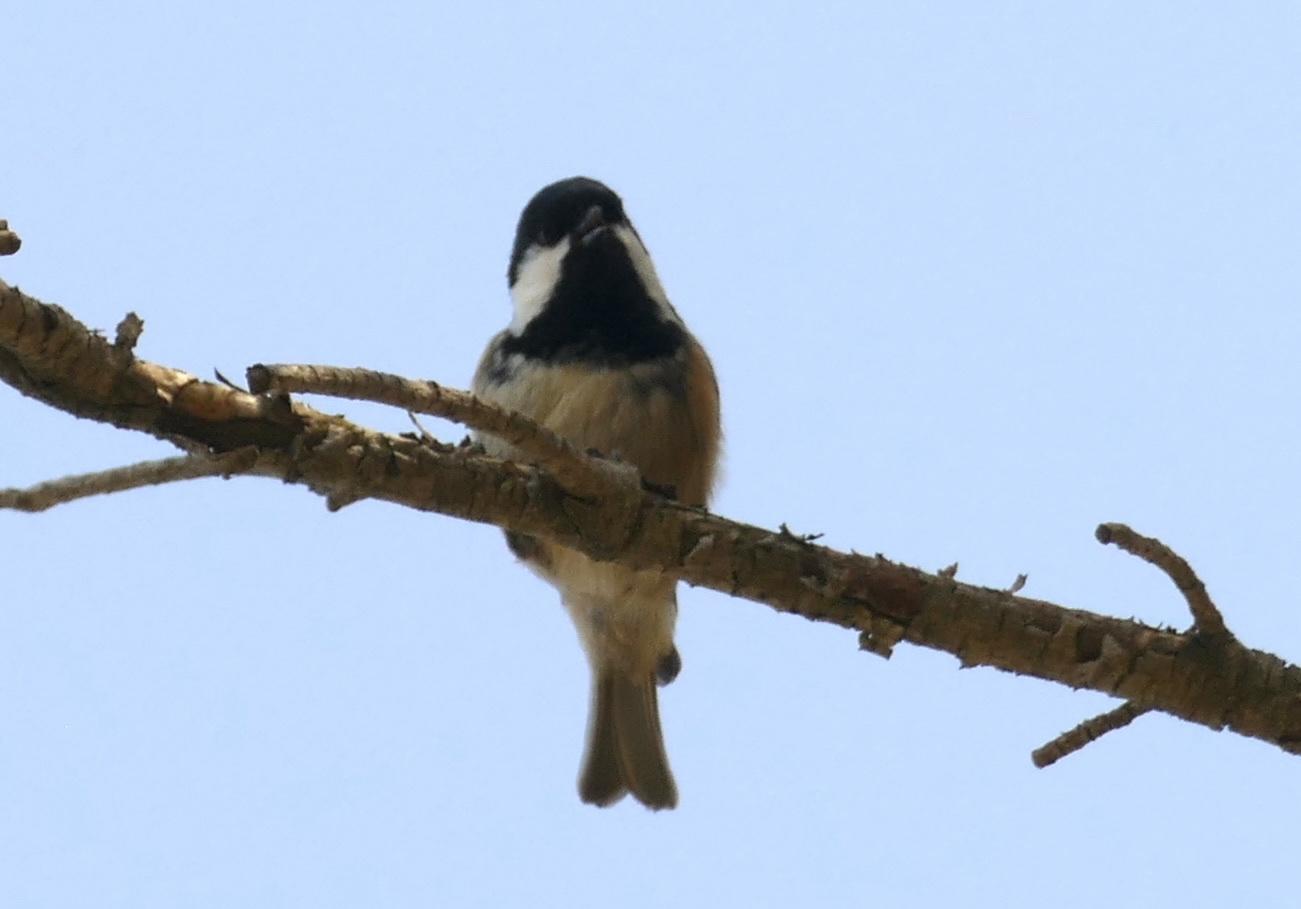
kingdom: Animalia
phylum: Chordata
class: Aves
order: Passeriformes
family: Paridae
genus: Periparus
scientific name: Periparus ater
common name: Coal tit
